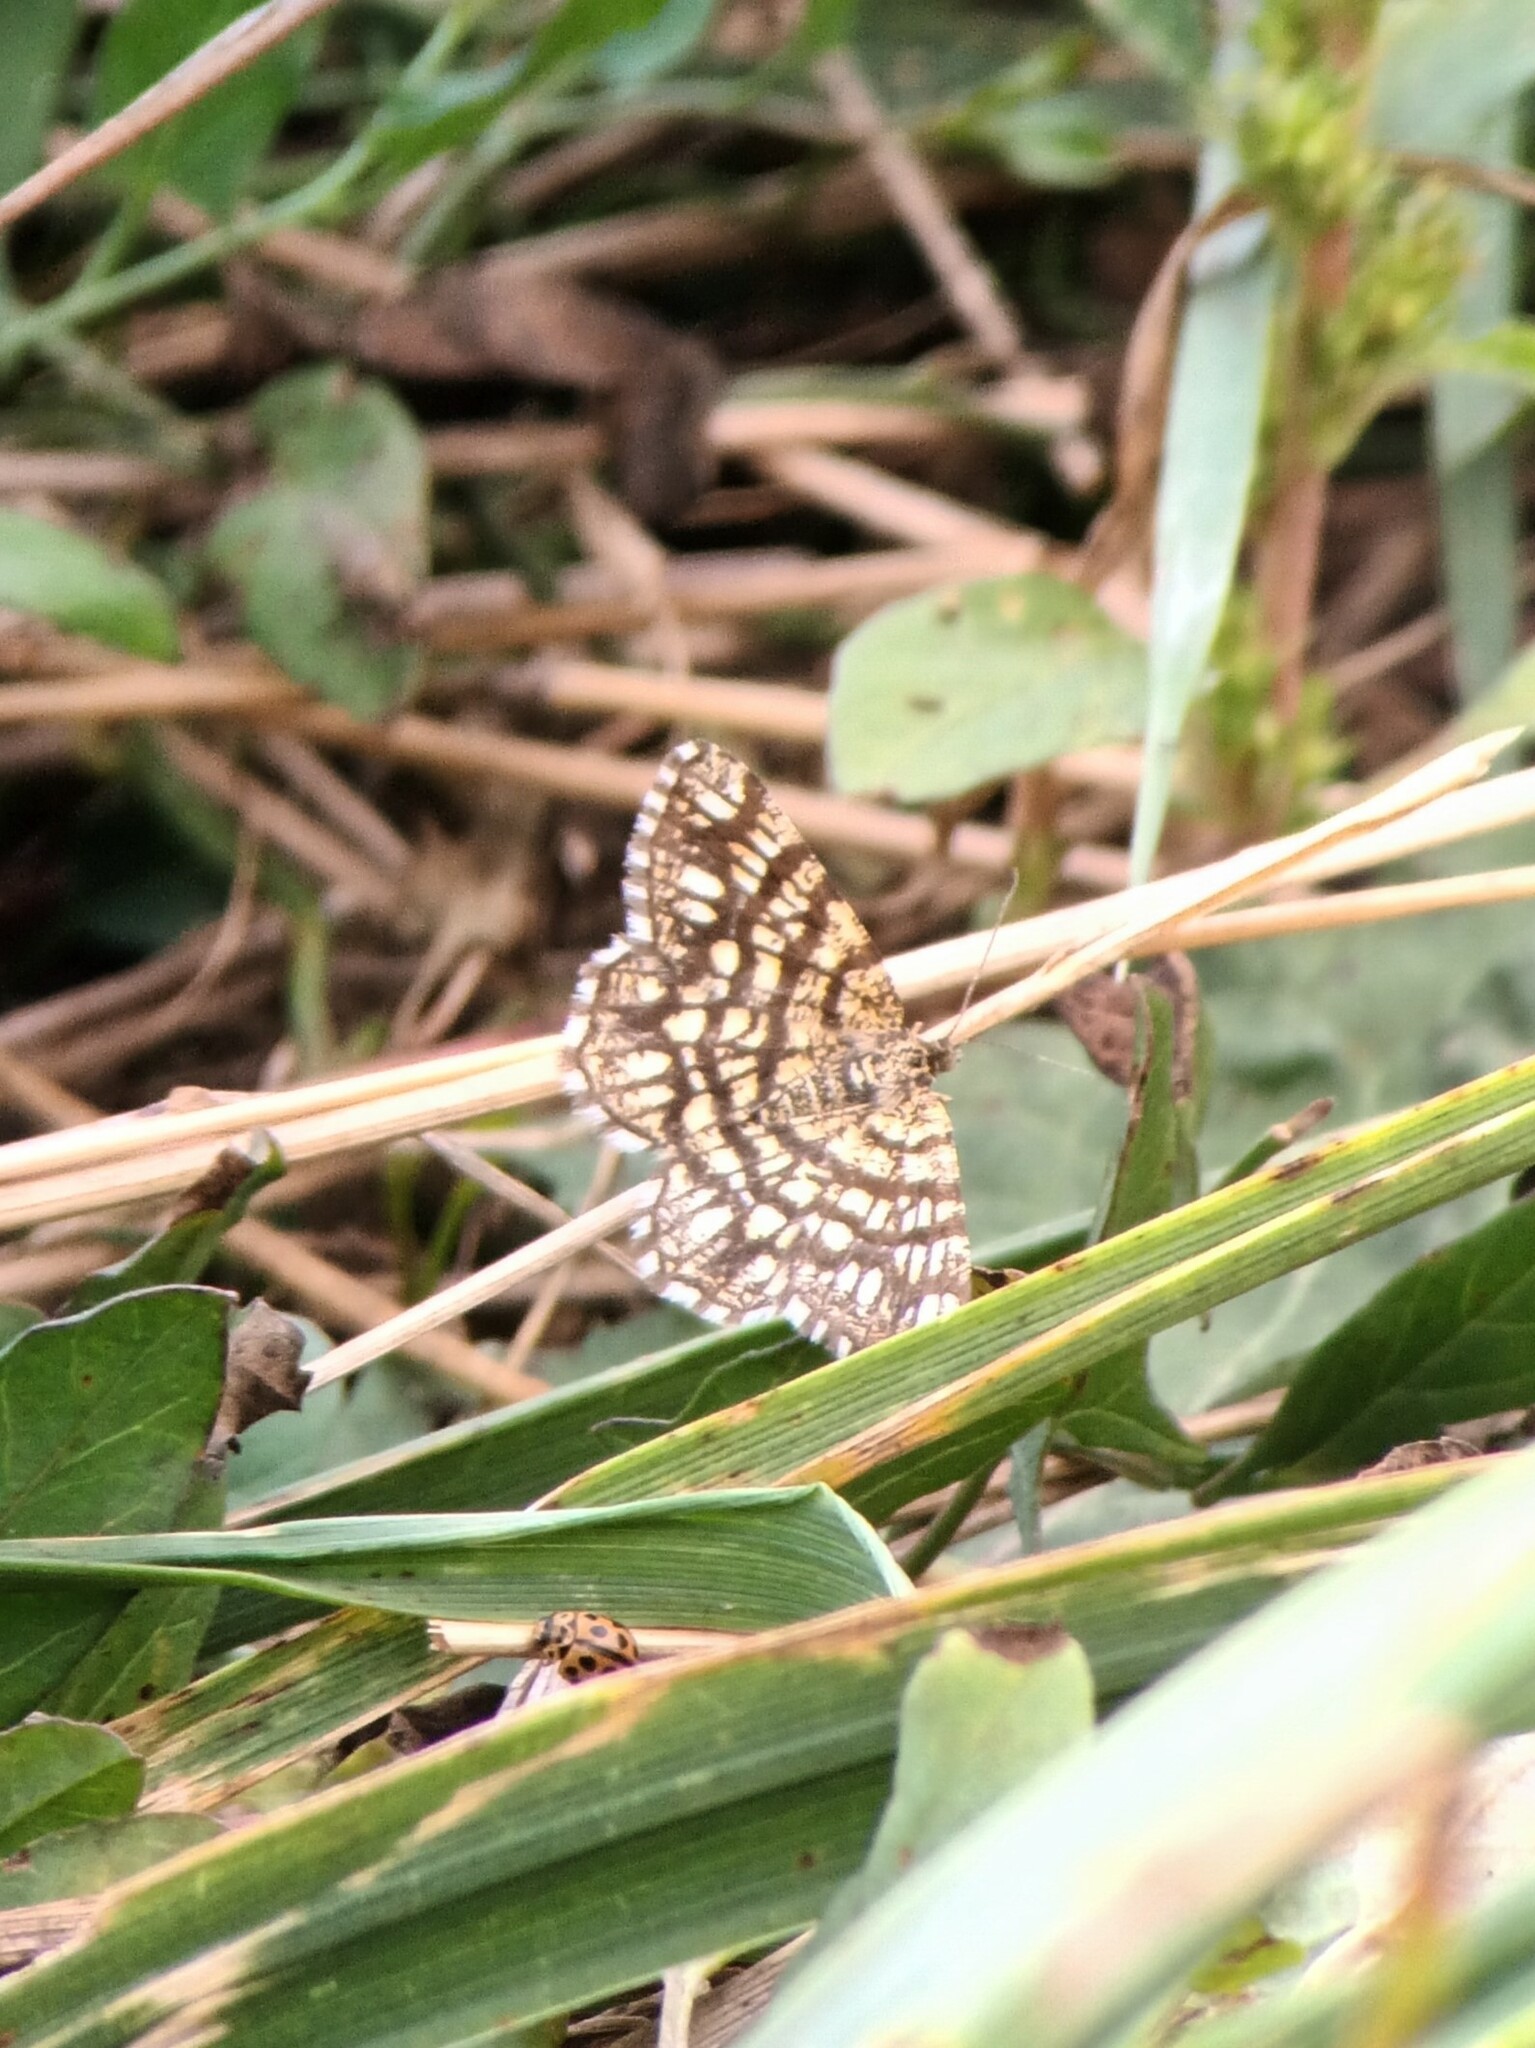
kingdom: Animalia
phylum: Arthropoda
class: Insecta
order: Lepidoptera
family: Geometridae
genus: Chiasmia
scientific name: Chiasmia clathrata
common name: Latticed heath
